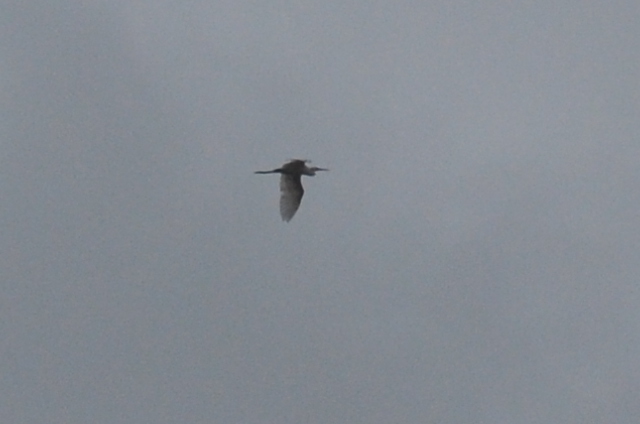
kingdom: Animalia
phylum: Chordata
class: Aves
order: Pelecaniformes
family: Ardeidae
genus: Ardea
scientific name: Ardea alba
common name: Great egret
